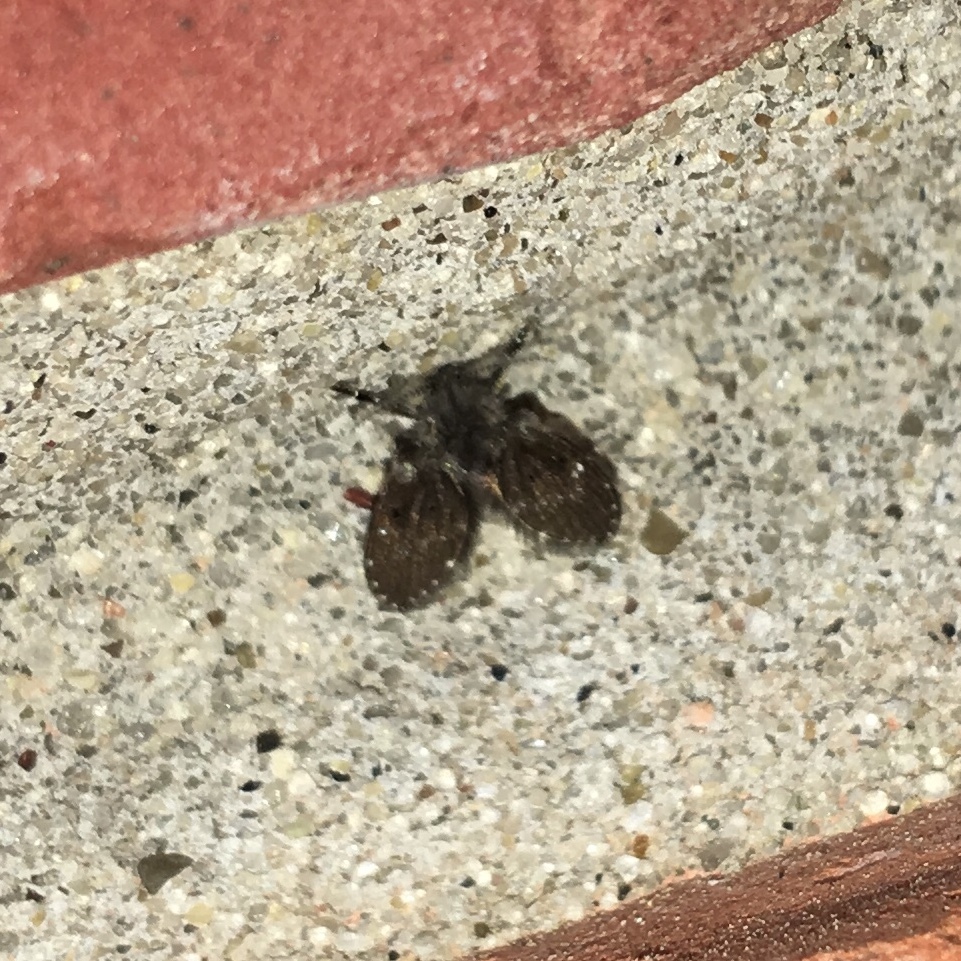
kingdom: Animalia
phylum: Arthropoda
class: Insecta
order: Diptera
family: Psychodidae
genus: Clogmia
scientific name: Clogmia albipunctatus
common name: White-spotted moth fly
